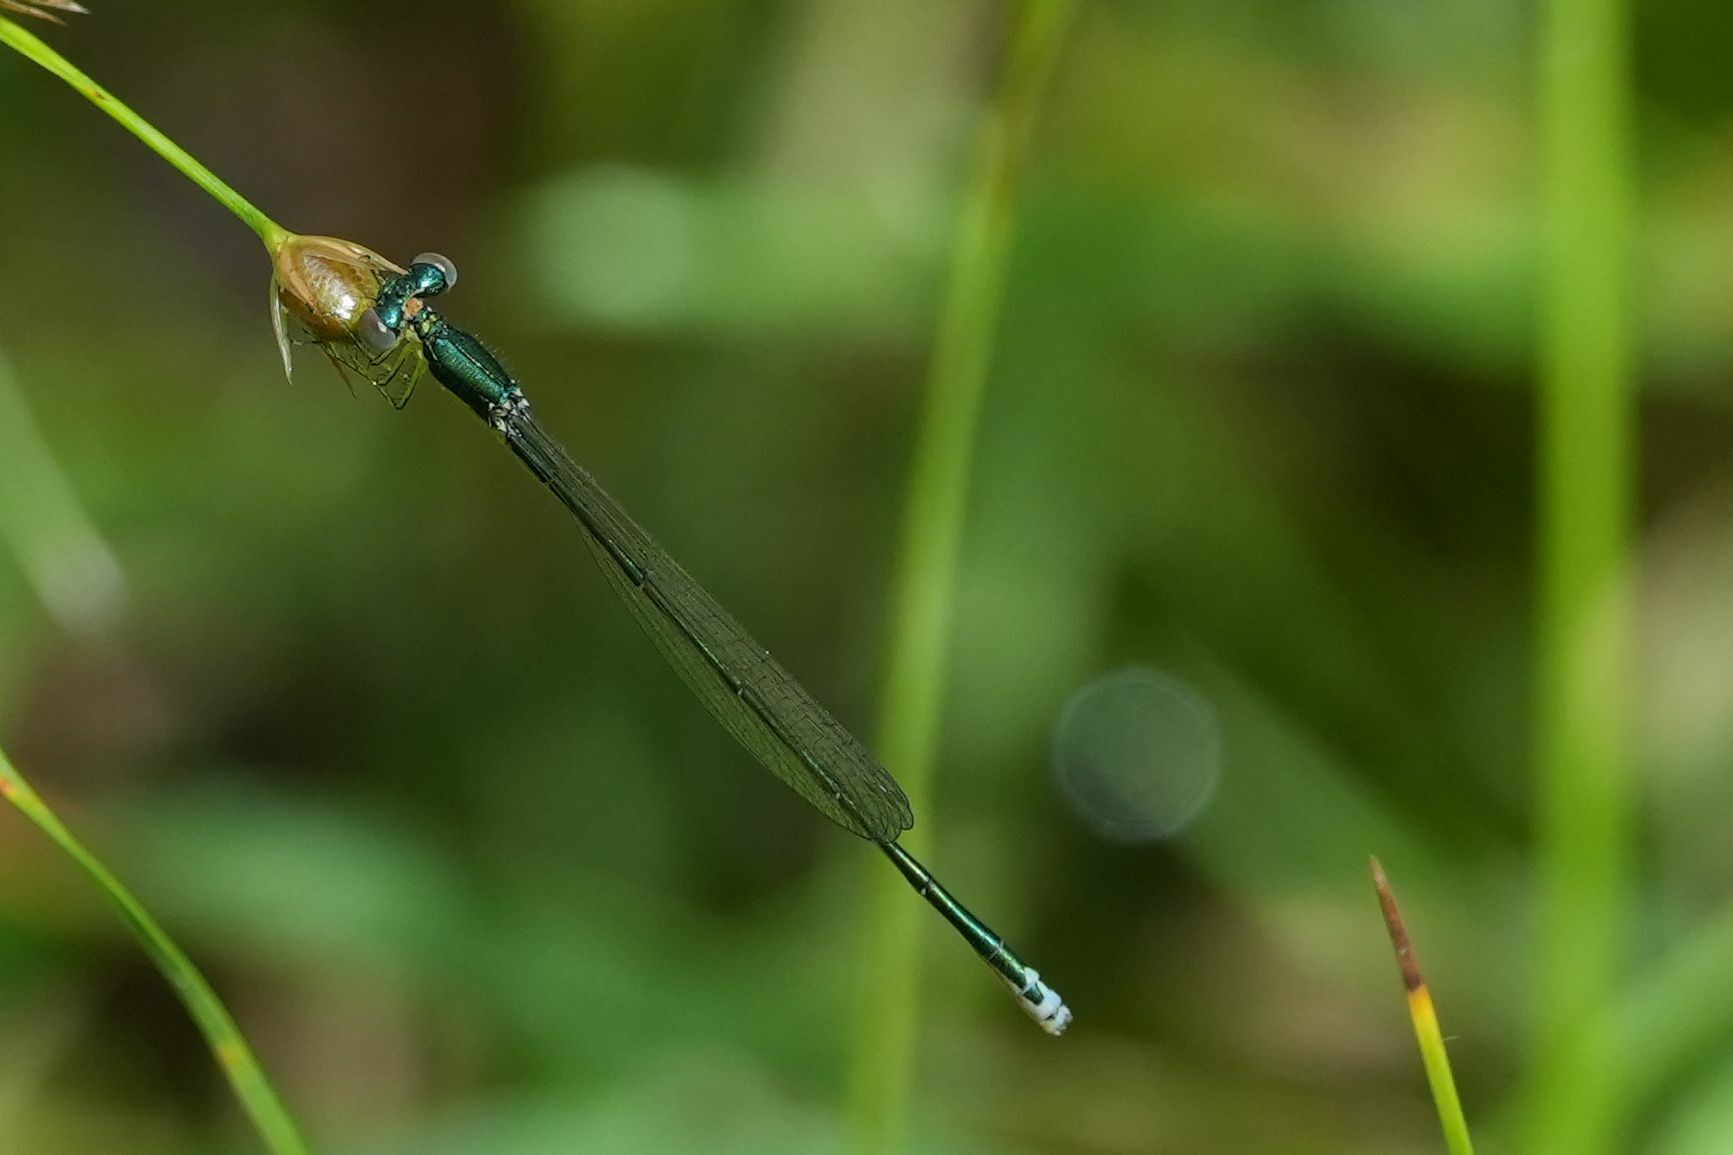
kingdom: Animalia
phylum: Arthropoda
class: Insecta
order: Odonata
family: Coenagrionidae
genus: Nehalennia
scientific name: Nehalennia irene
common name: Sedge sprite
